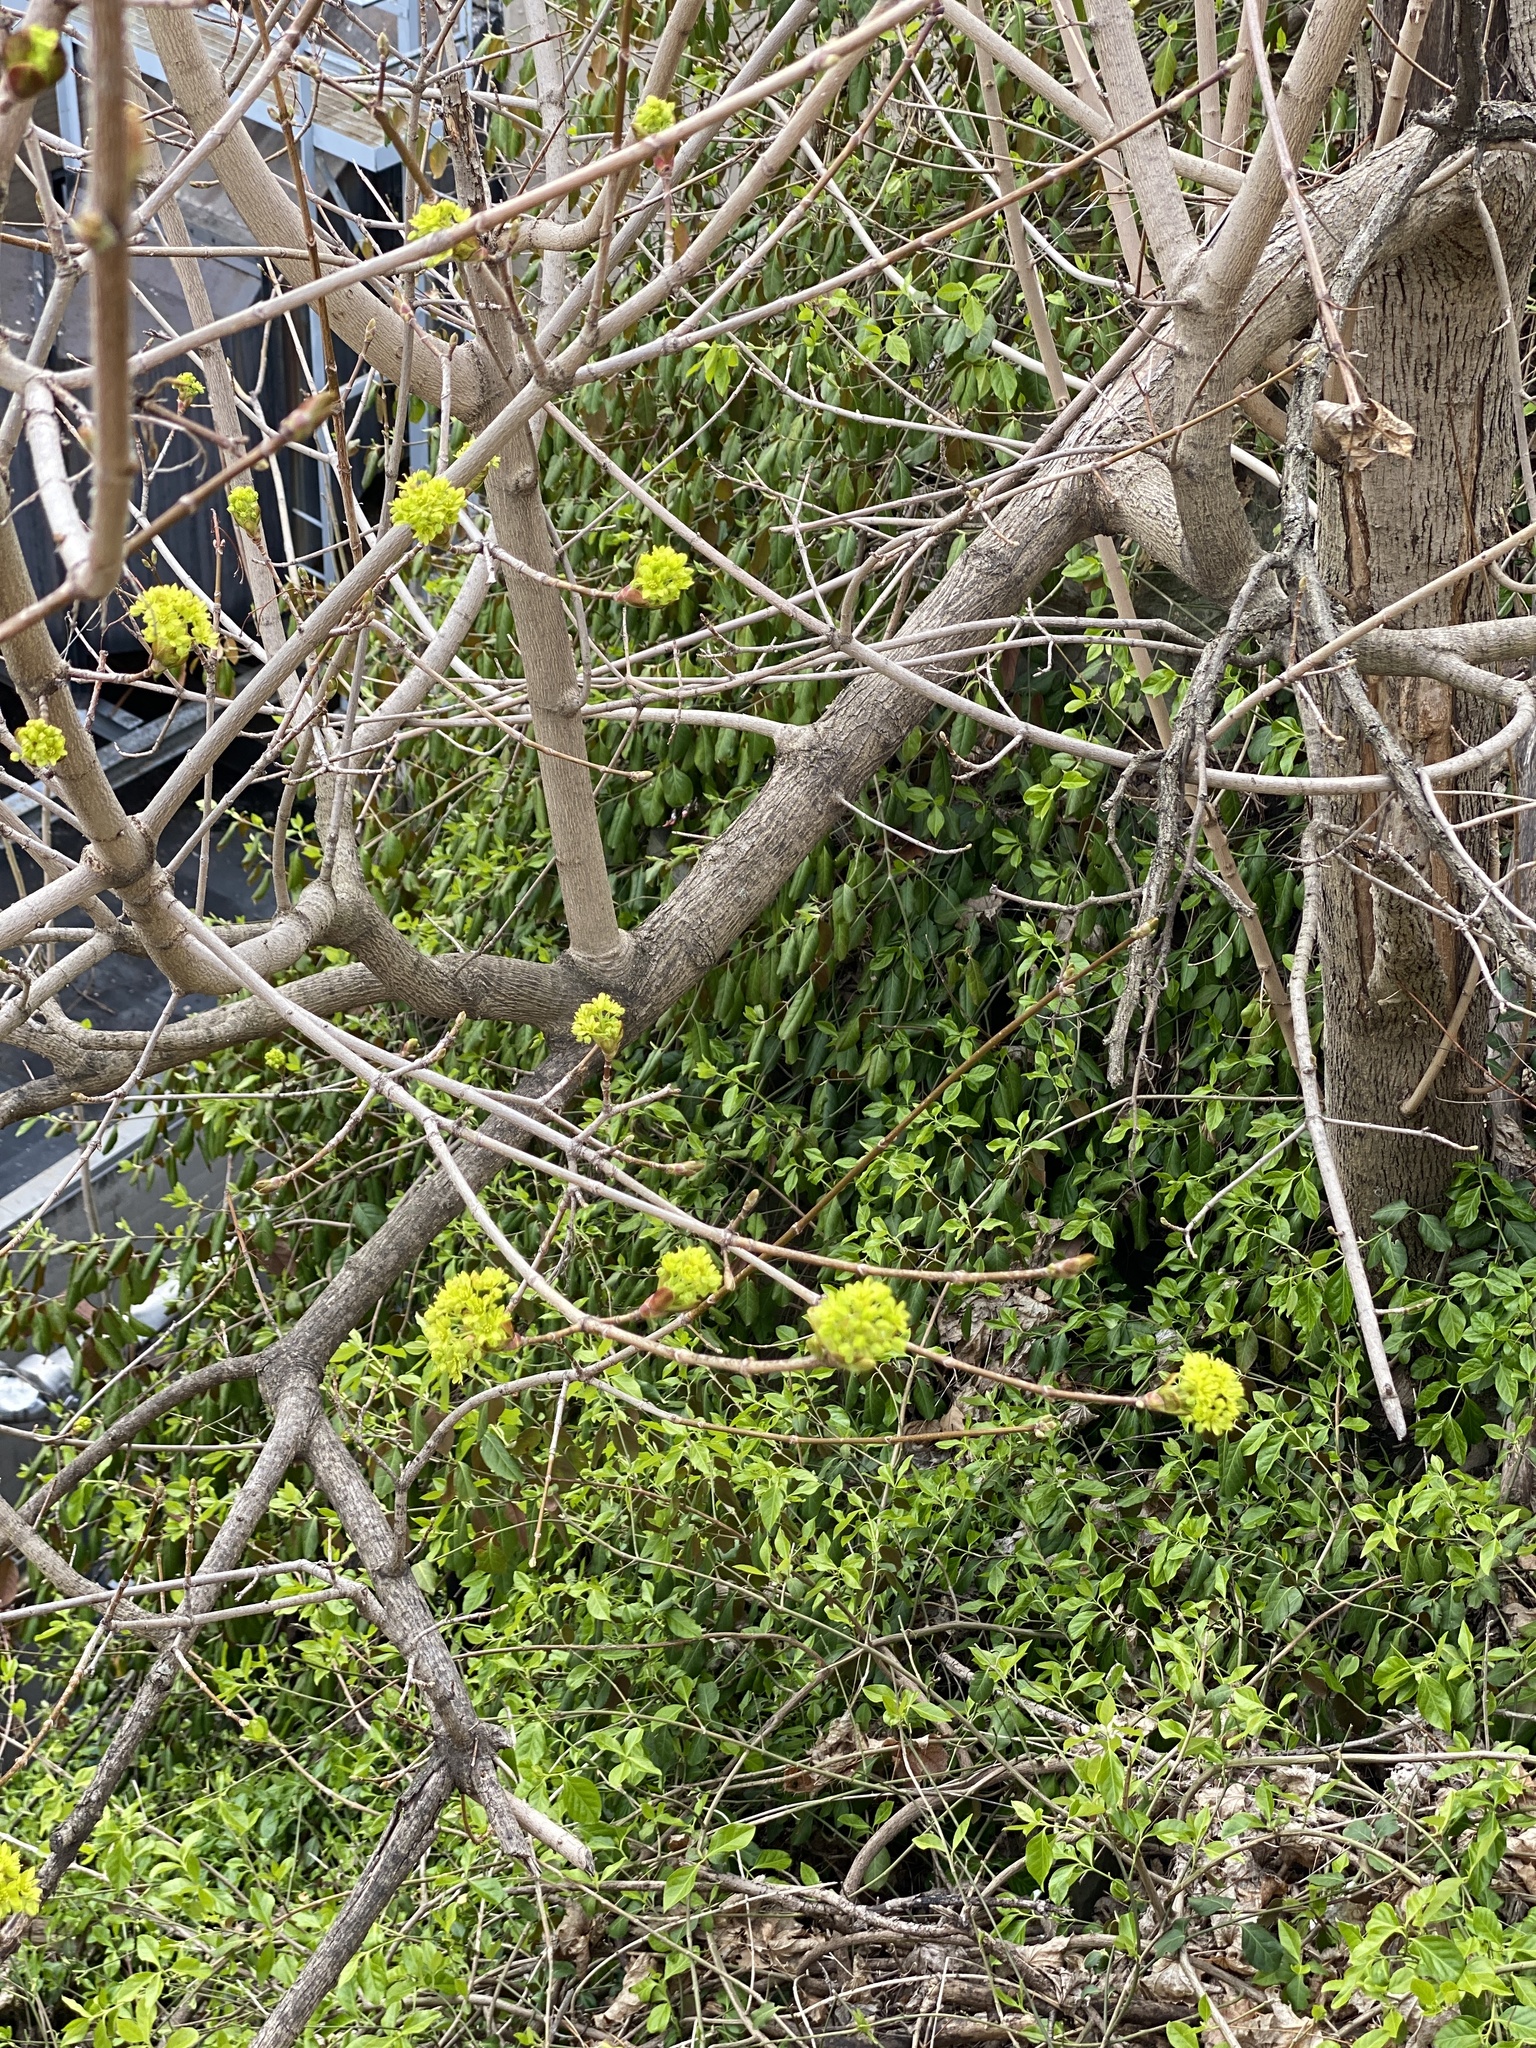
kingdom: Plantae
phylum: Tracheophyta
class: Magnoliopsida
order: Sapindales
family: Sapindaceae
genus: Acer
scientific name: Acer platanoides
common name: Norway maple
